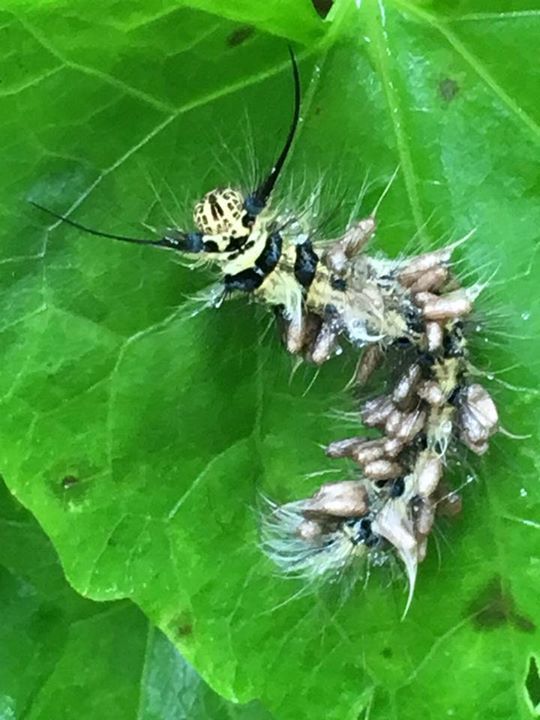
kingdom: Animalia
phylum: Arthropoda
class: Insecta
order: Lepidoptera
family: Lasiocampidae
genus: Trabala
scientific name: Trabala vishnou
